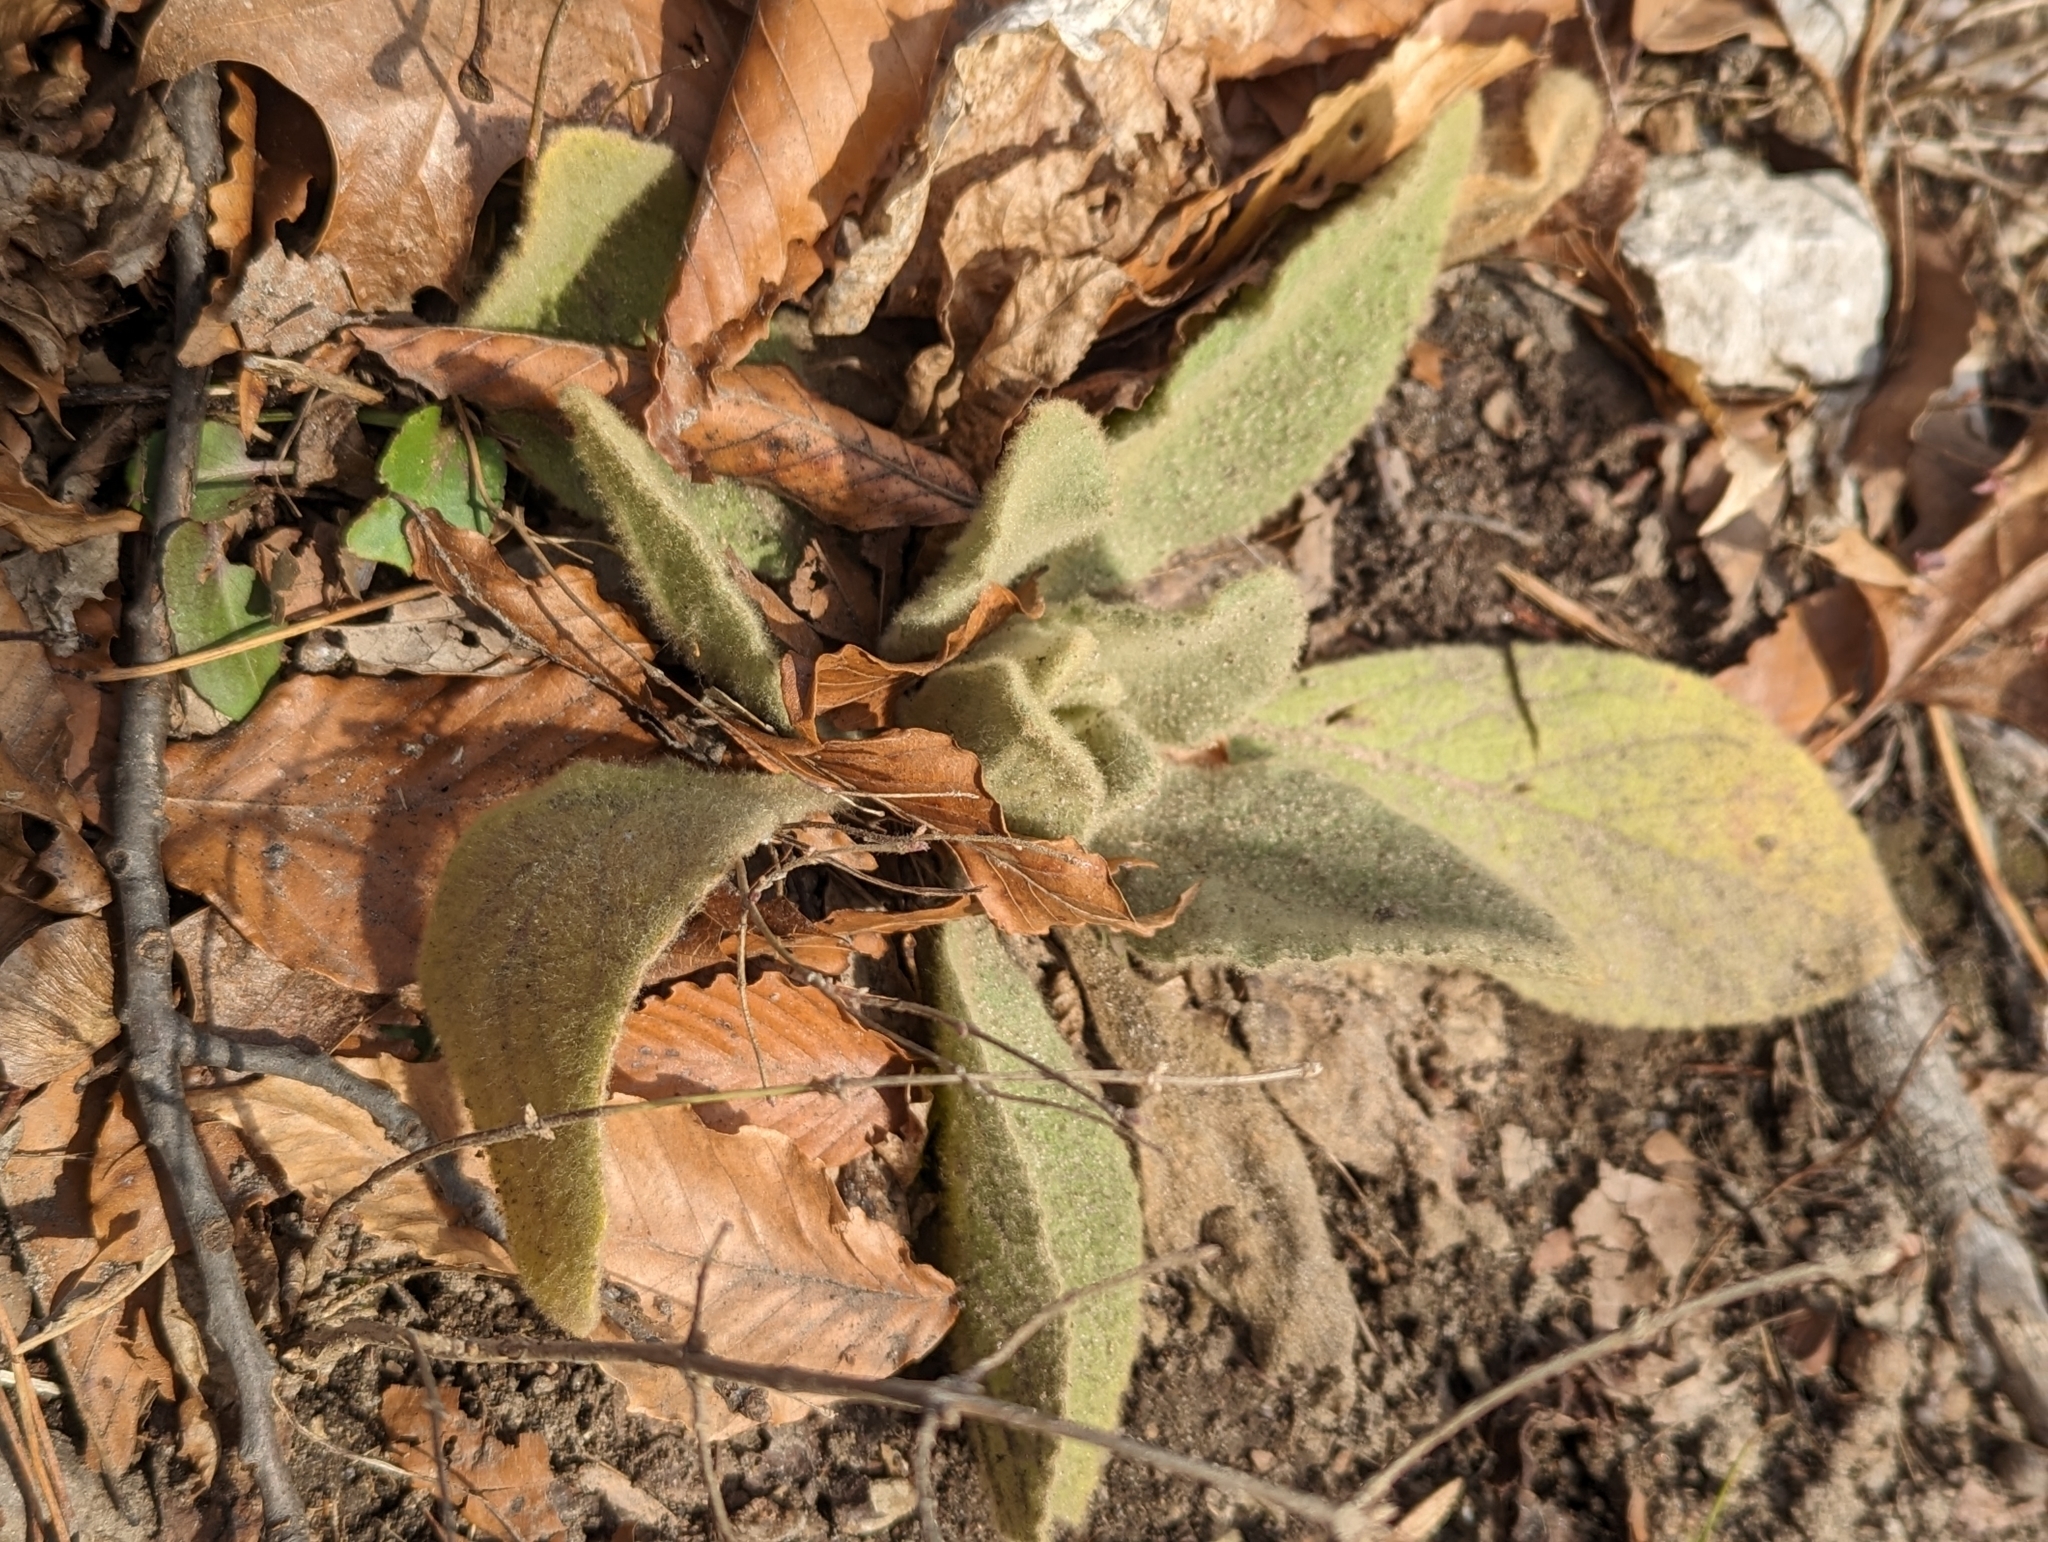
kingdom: Plantae
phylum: Tracheophyta
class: Magnoliopsida
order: Lamiales
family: Scrophulariaceae
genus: Verbascum
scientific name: Verbascum thapsus
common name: Common mullein
